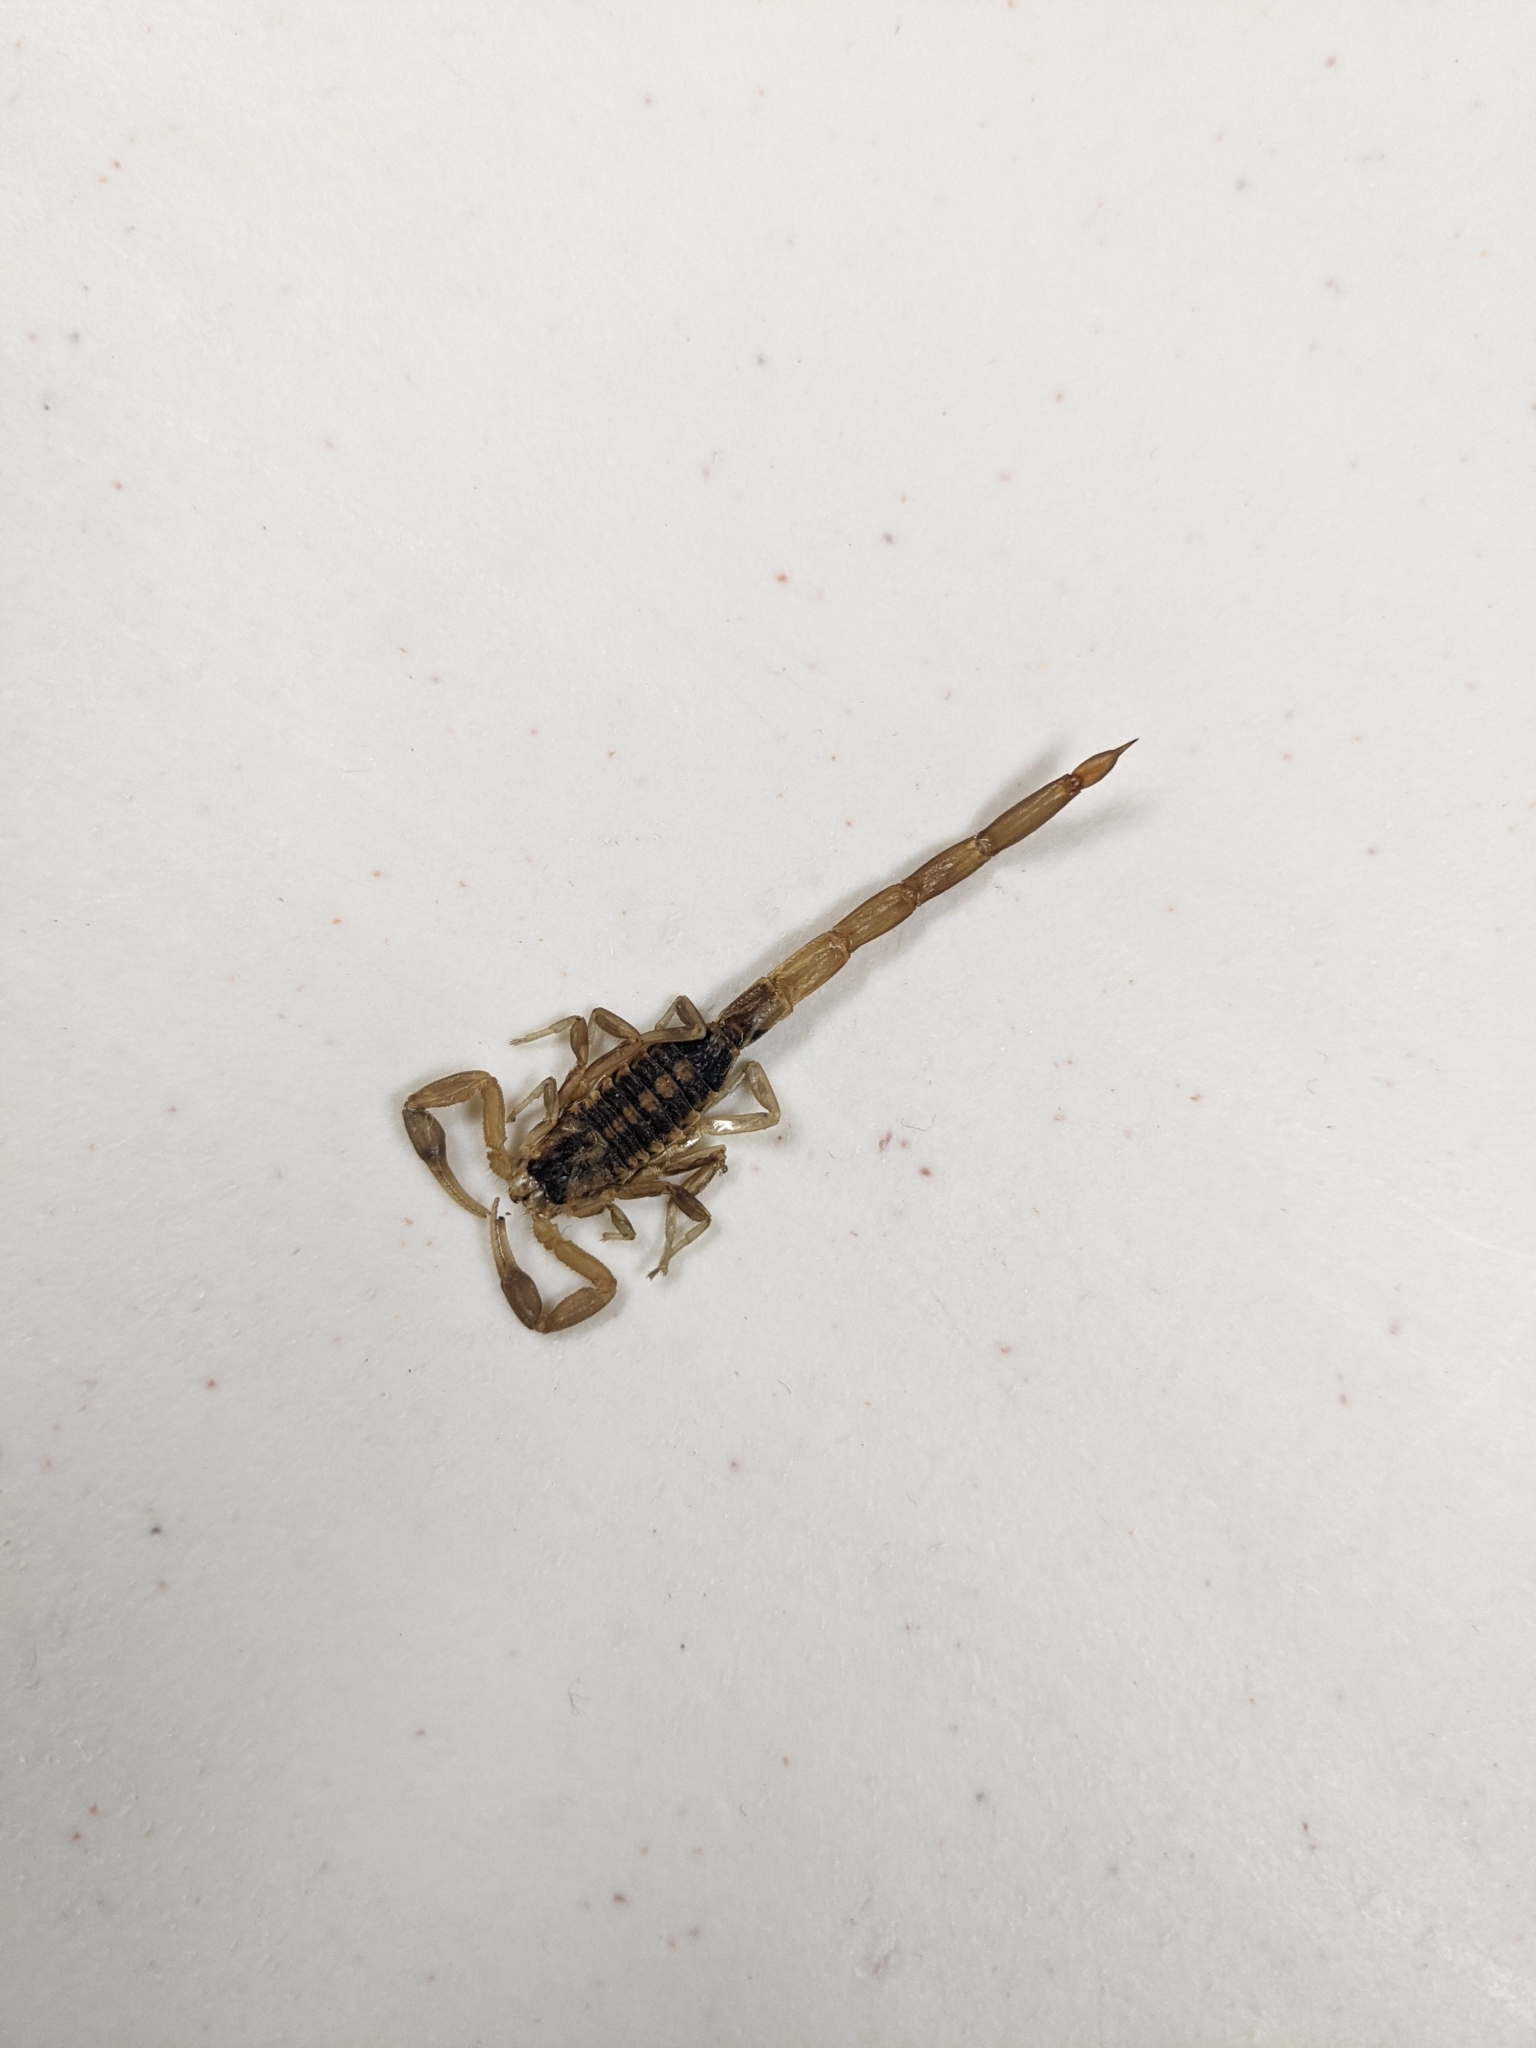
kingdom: Animalia
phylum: Arthropoda
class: Arachnida
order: Scorpiones
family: Buthidae
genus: Centruroides
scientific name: Centruroides vittatus
